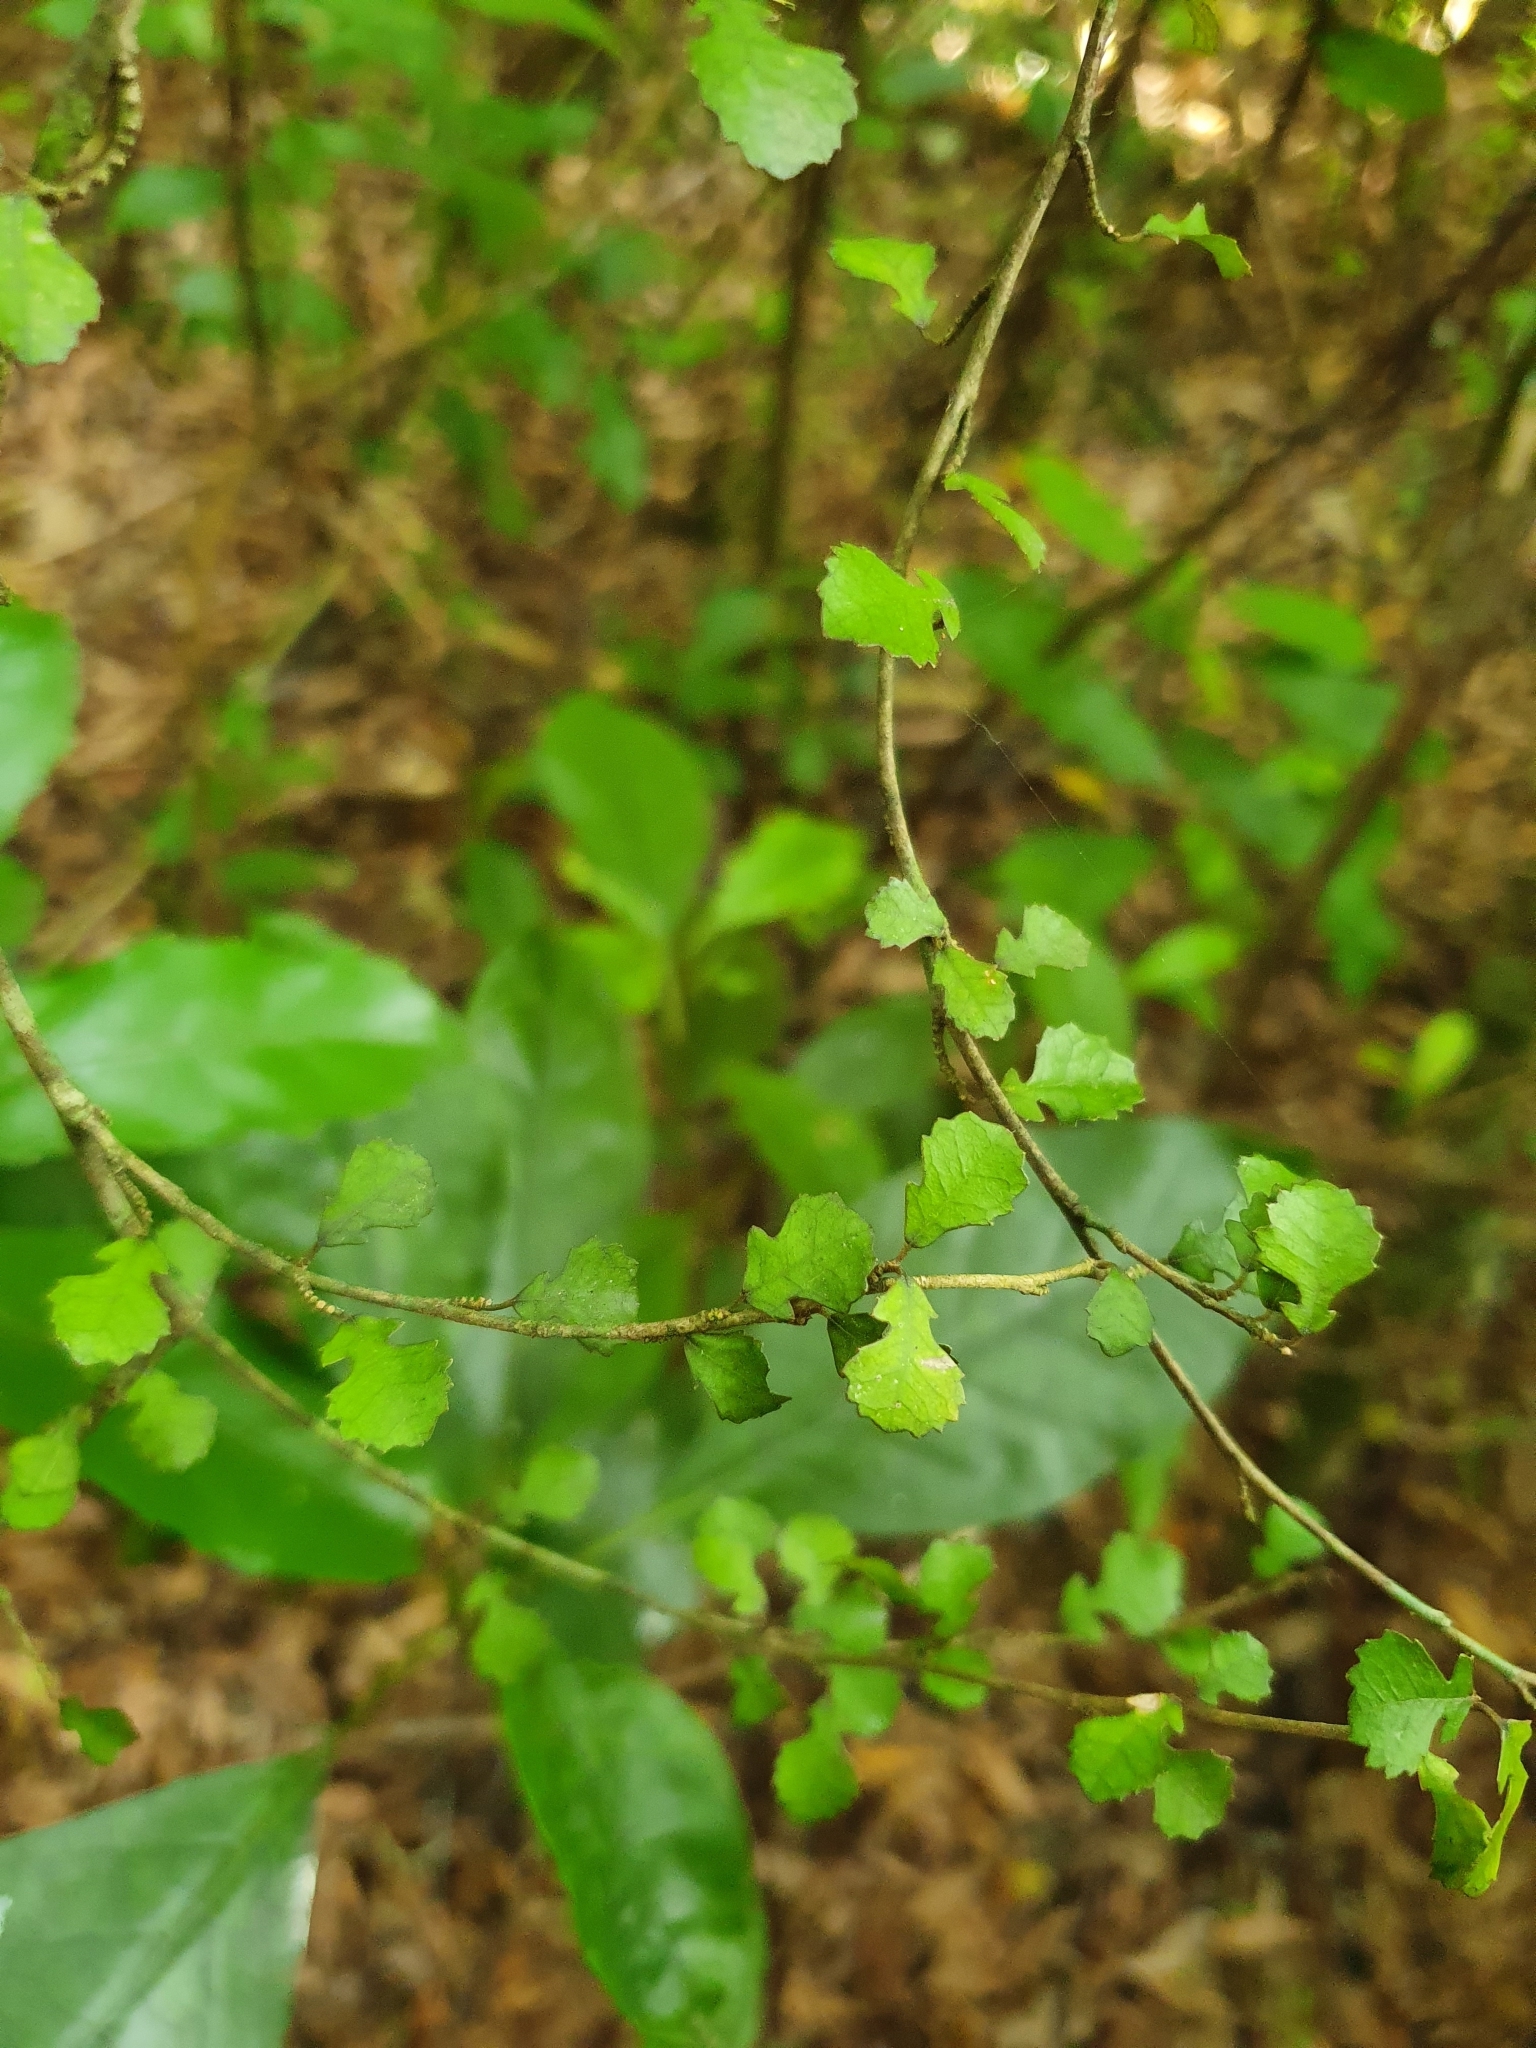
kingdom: Plantae
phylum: Tracheophyta
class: Magnoliopsida
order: Rosales
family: Moraceae
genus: Paratrophis
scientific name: Paratrophis microphylla
